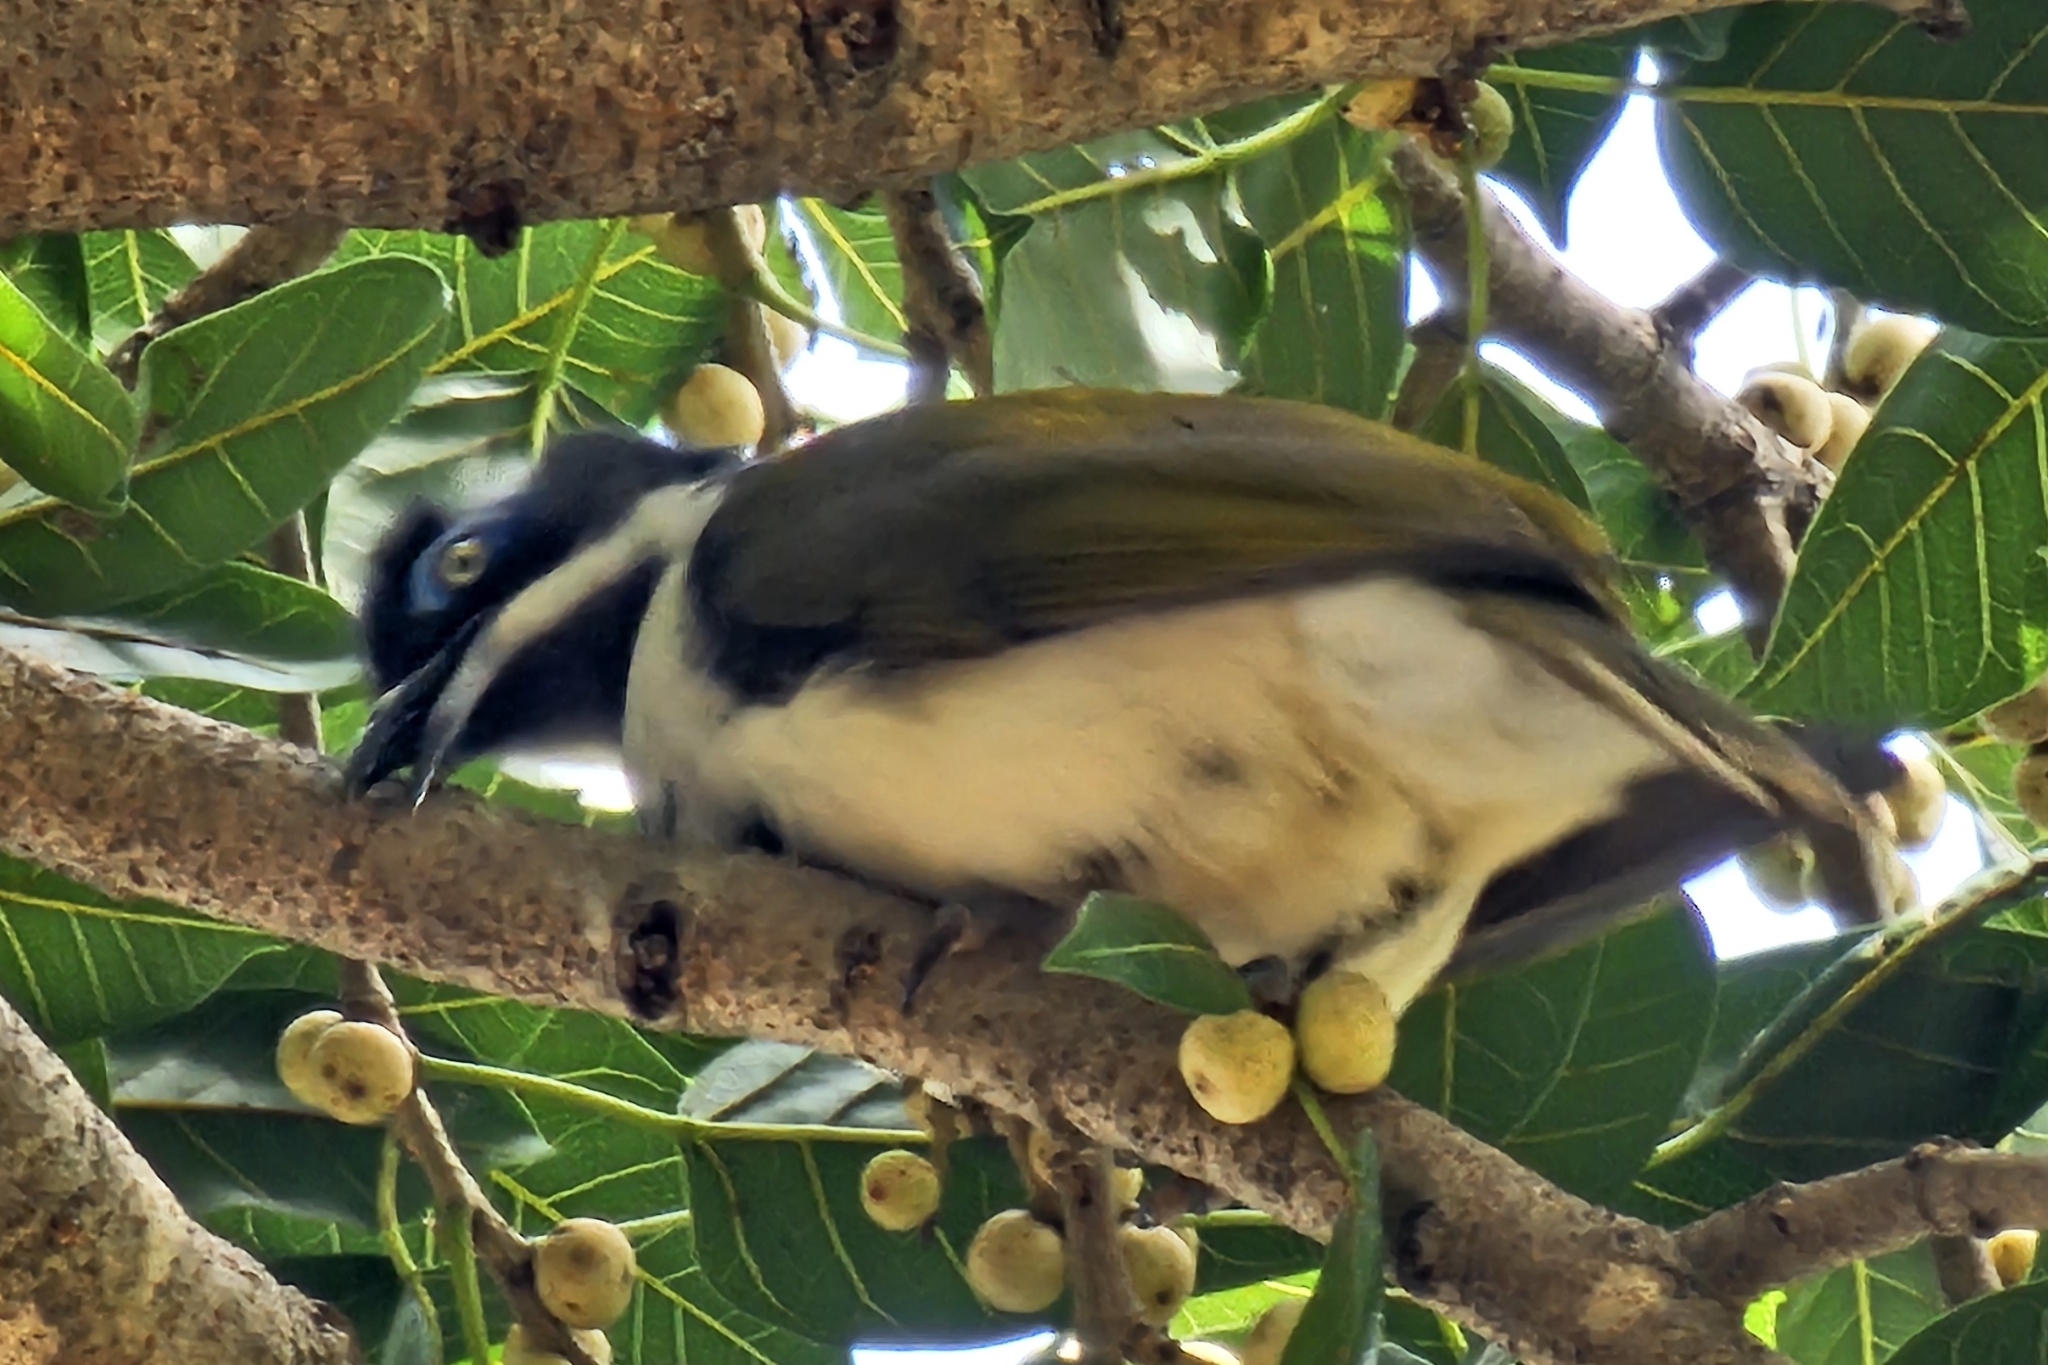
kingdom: Animalia
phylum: Chordata
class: Aves
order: Passeriformes
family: Meliphagidae
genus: Entomyzon
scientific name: Entomyzon cyanotis
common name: Blue-faced honeyeater
